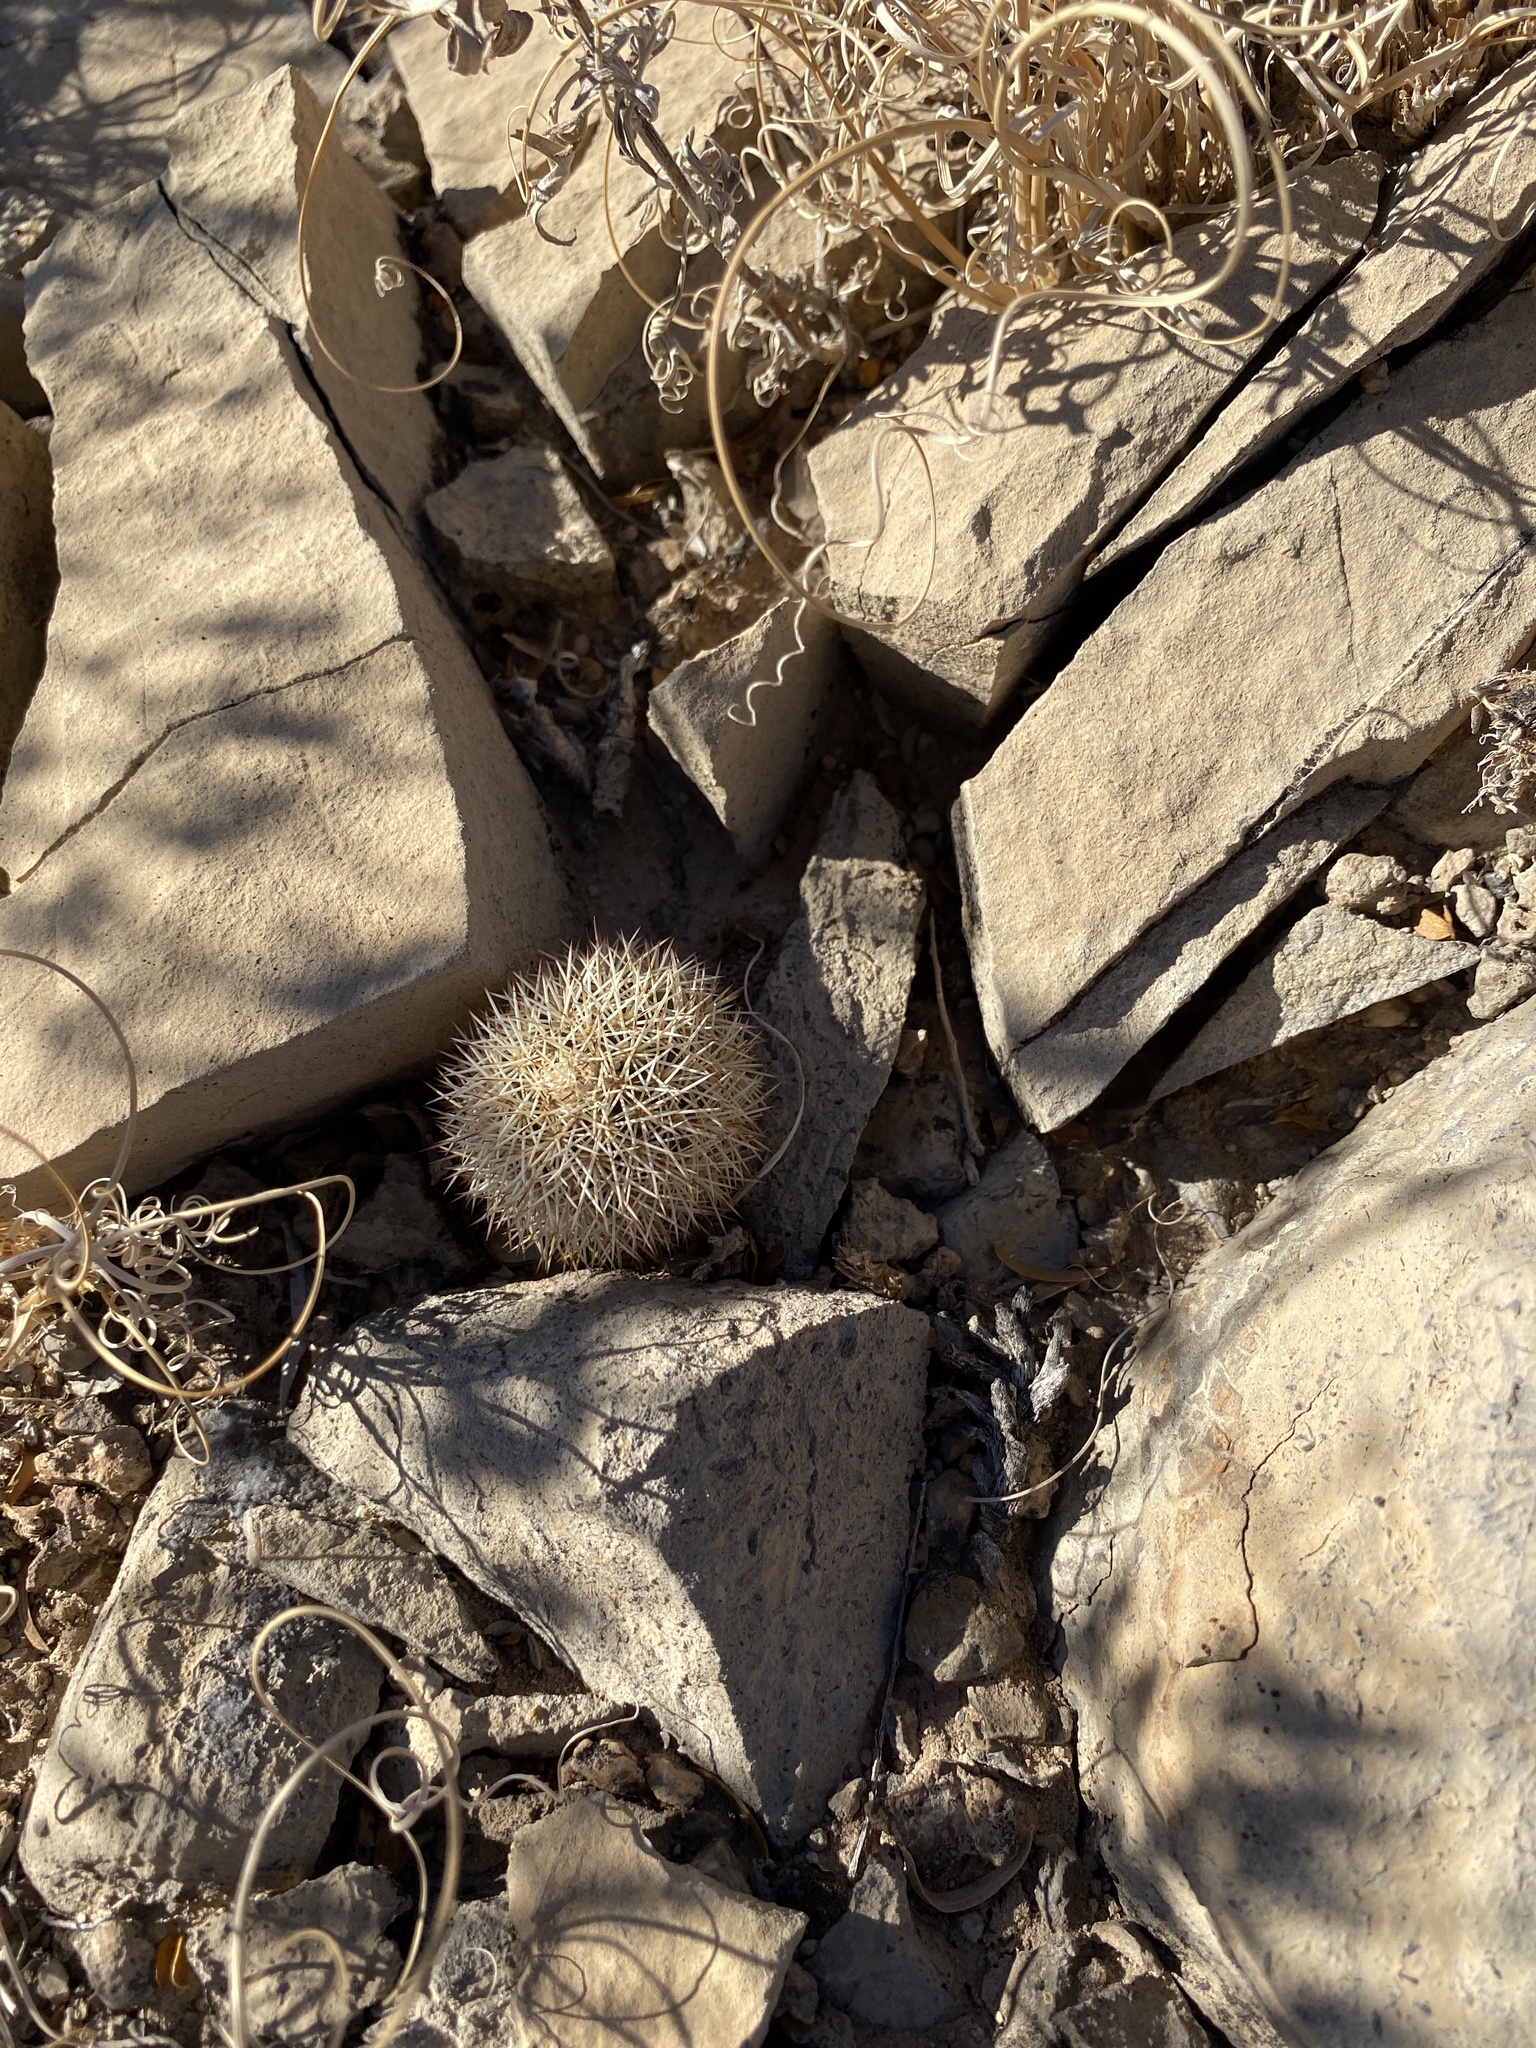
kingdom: Plantae
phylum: Tracheophyta
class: Magnoliopsida
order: Caryophyllales
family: Cactaceae
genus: Echinocereus
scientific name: Echinocereus dasyacanthus
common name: Spiny hedgehog cactus
